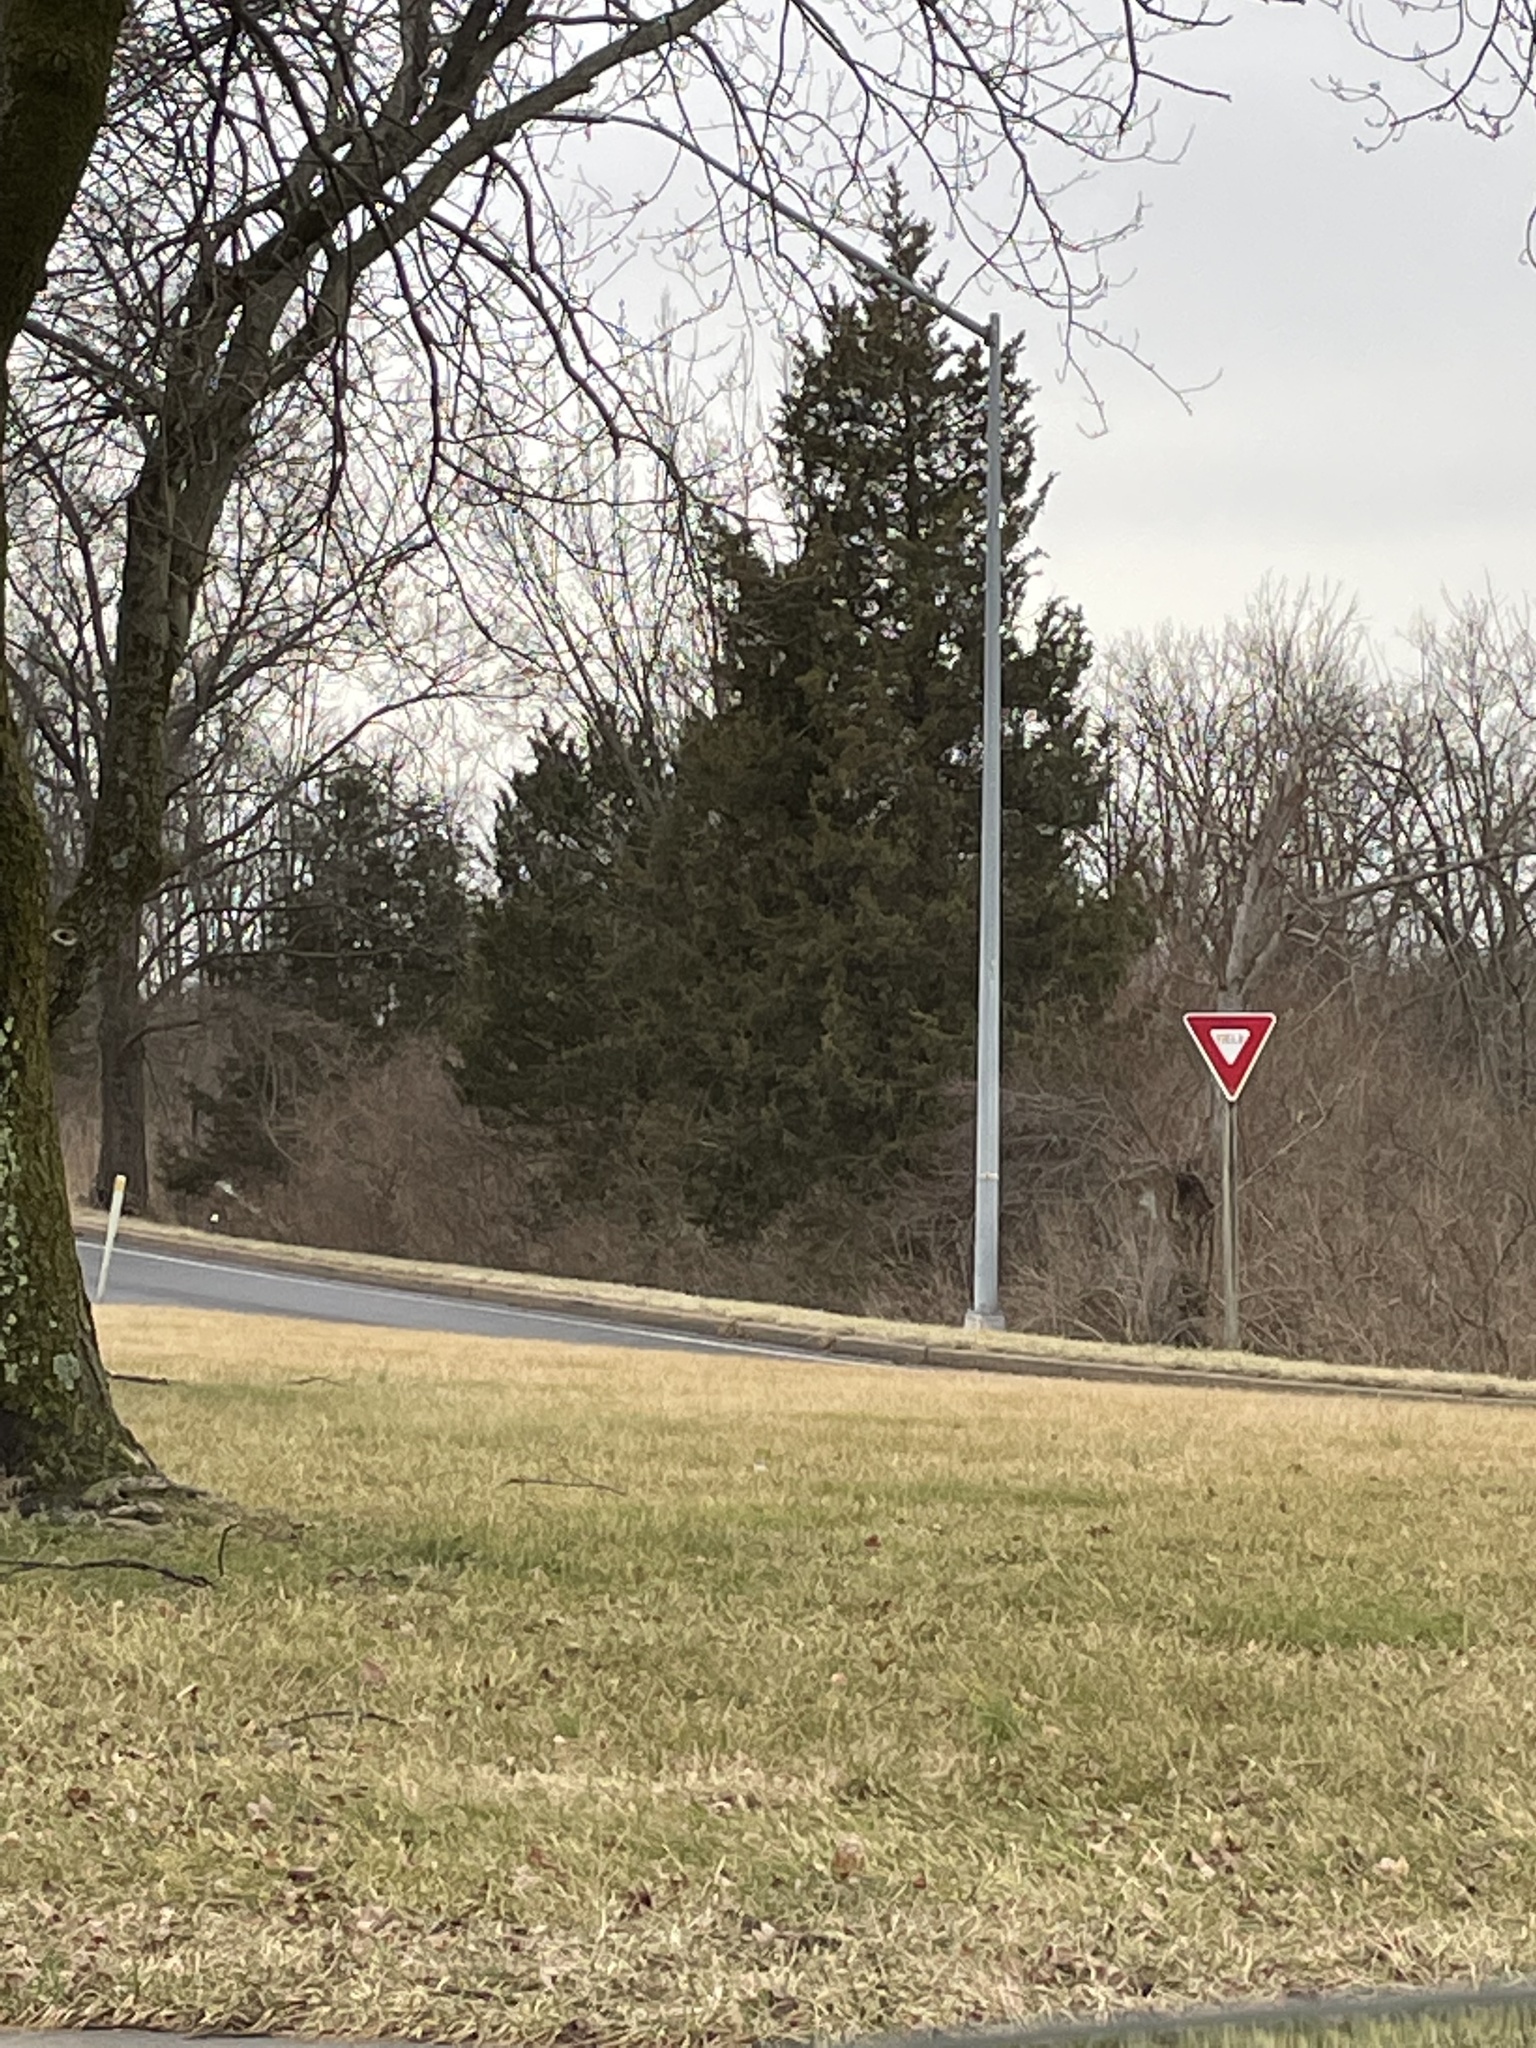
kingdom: Plantae
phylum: Tracheophyta
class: Pinopsida
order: Pinales
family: Cupressaceae
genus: Juniperus
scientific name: Juniperus virginiana
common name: Red juniper
